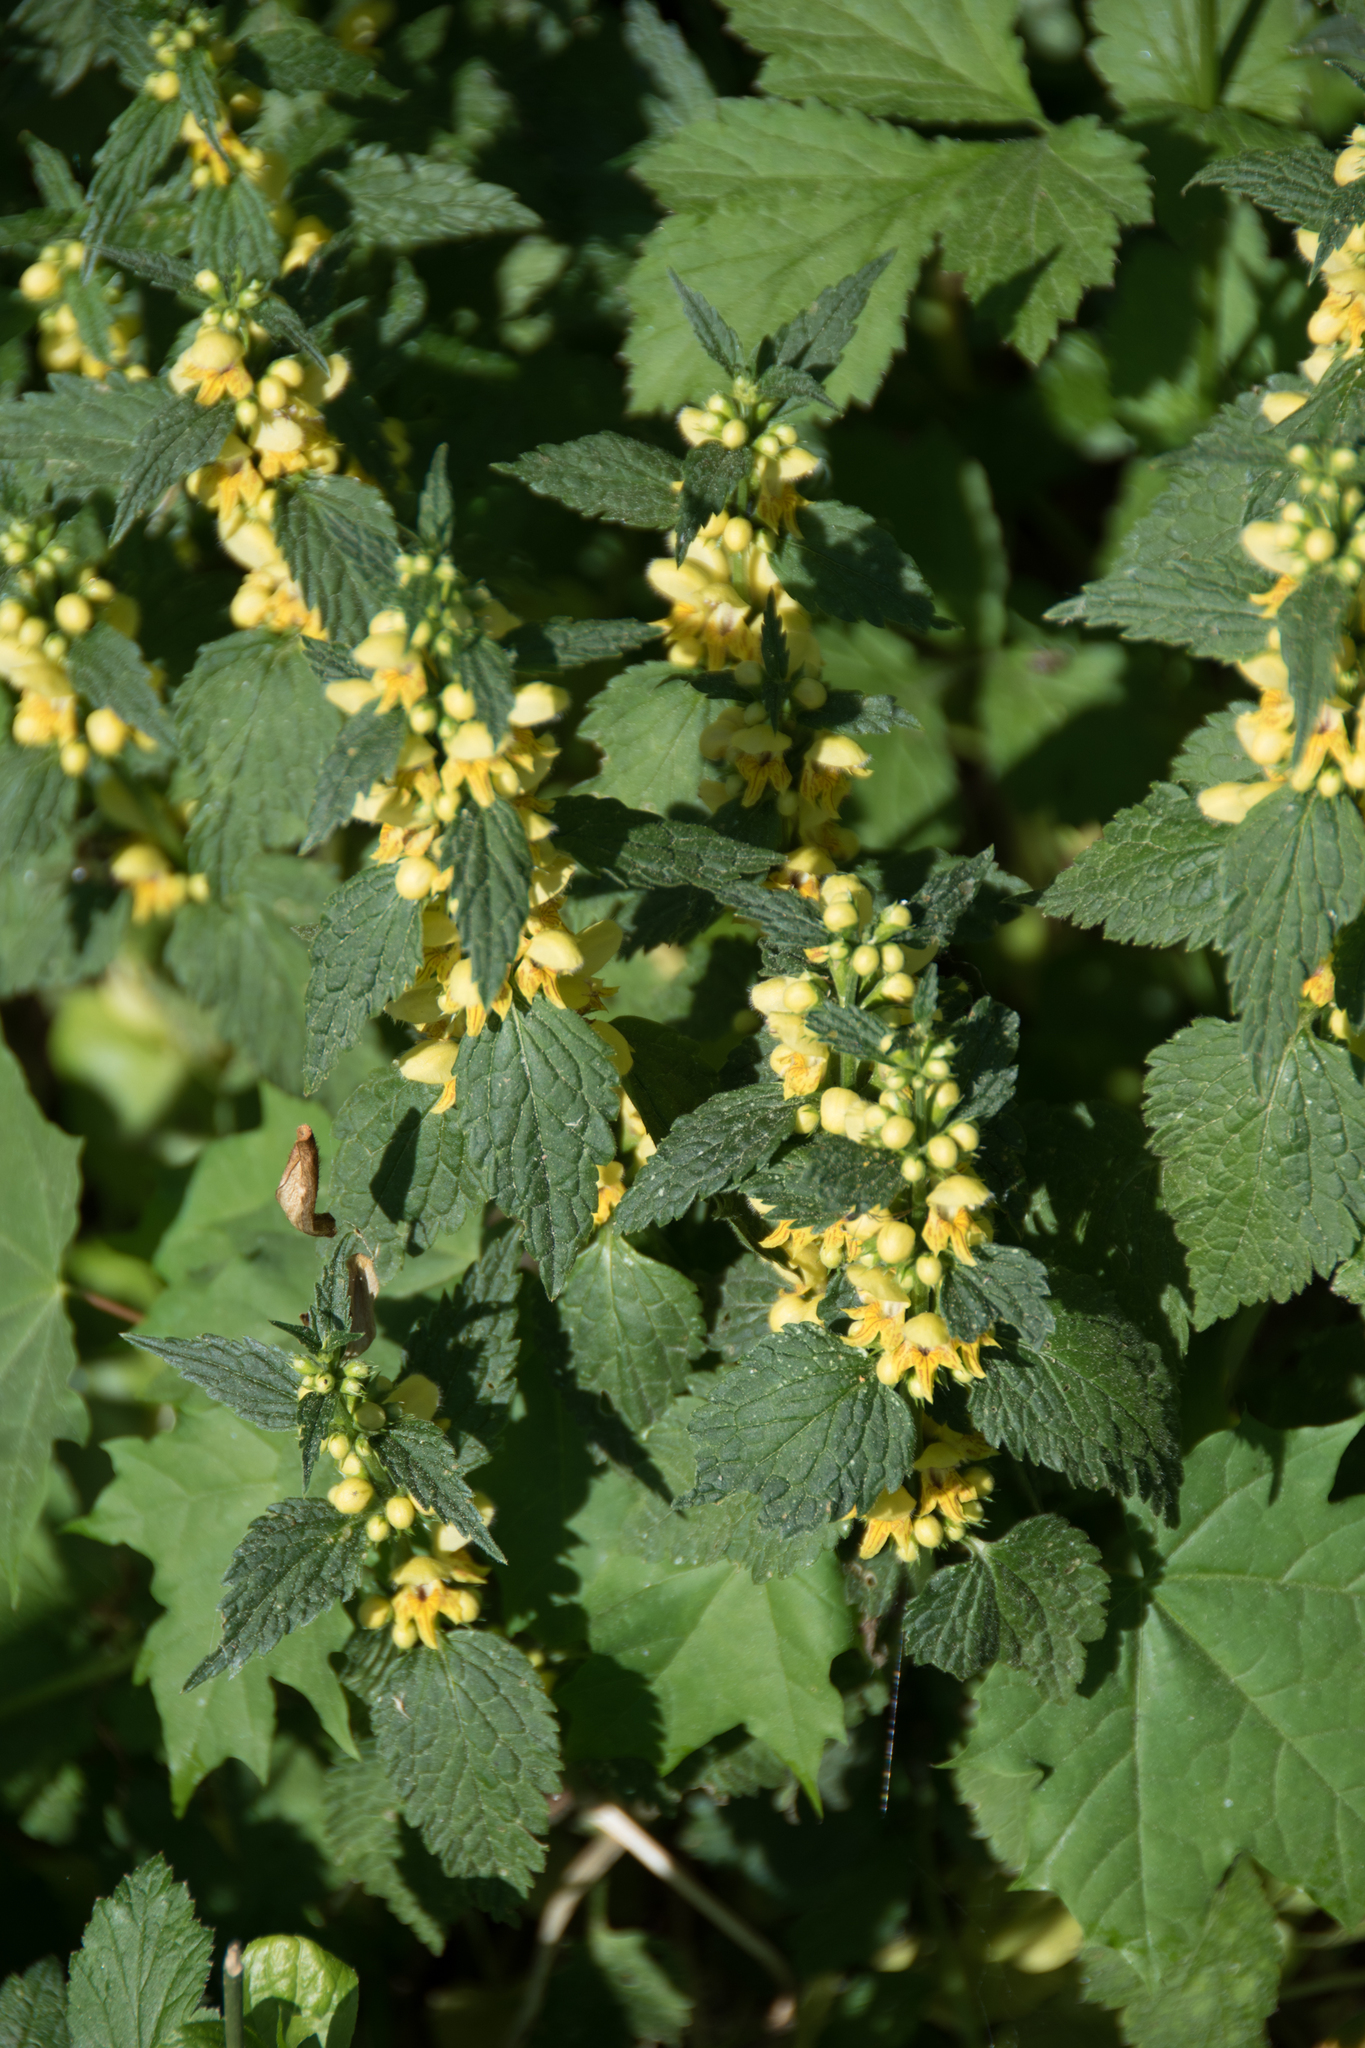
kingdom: Plantae
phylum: Tracheophyta
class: Magnoliopsida
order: Lamiales
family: Lamiaceae
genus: Lamium
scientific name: Lamium galeobdolon
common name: Yellow archangel
